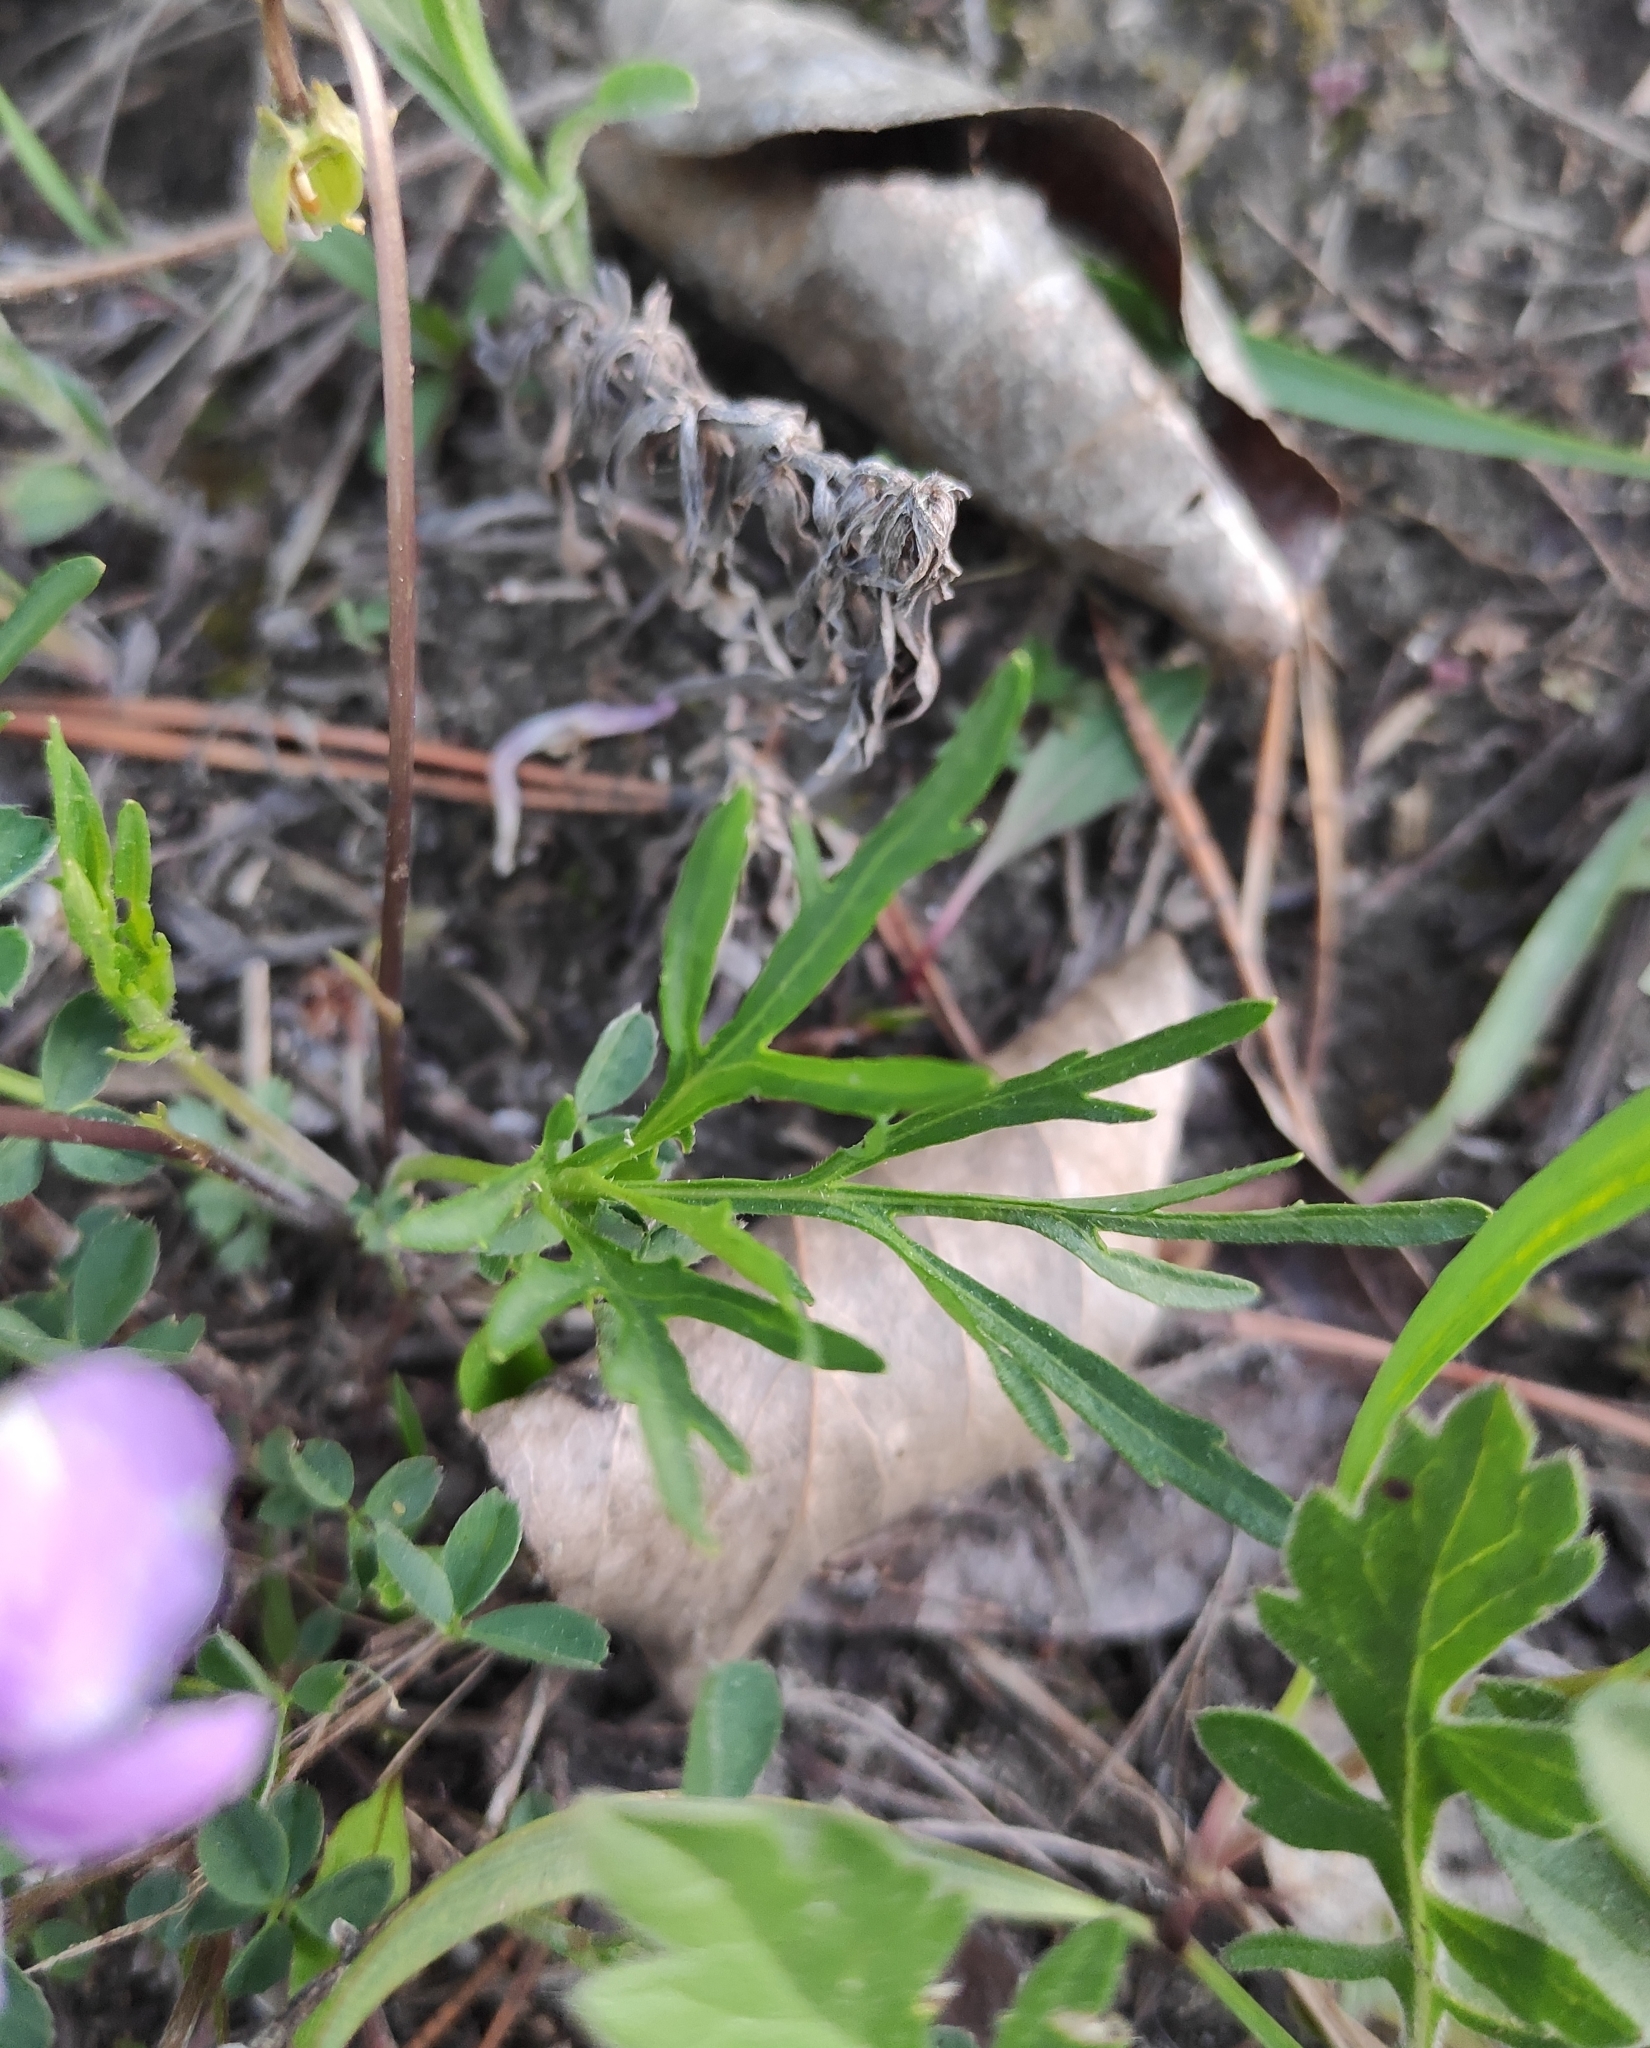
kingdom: Plantae
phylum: Tracheophyta
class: Magnoliopsida
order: Malpighiales
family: Violaceae
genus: Viola
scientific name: Viola multifida
